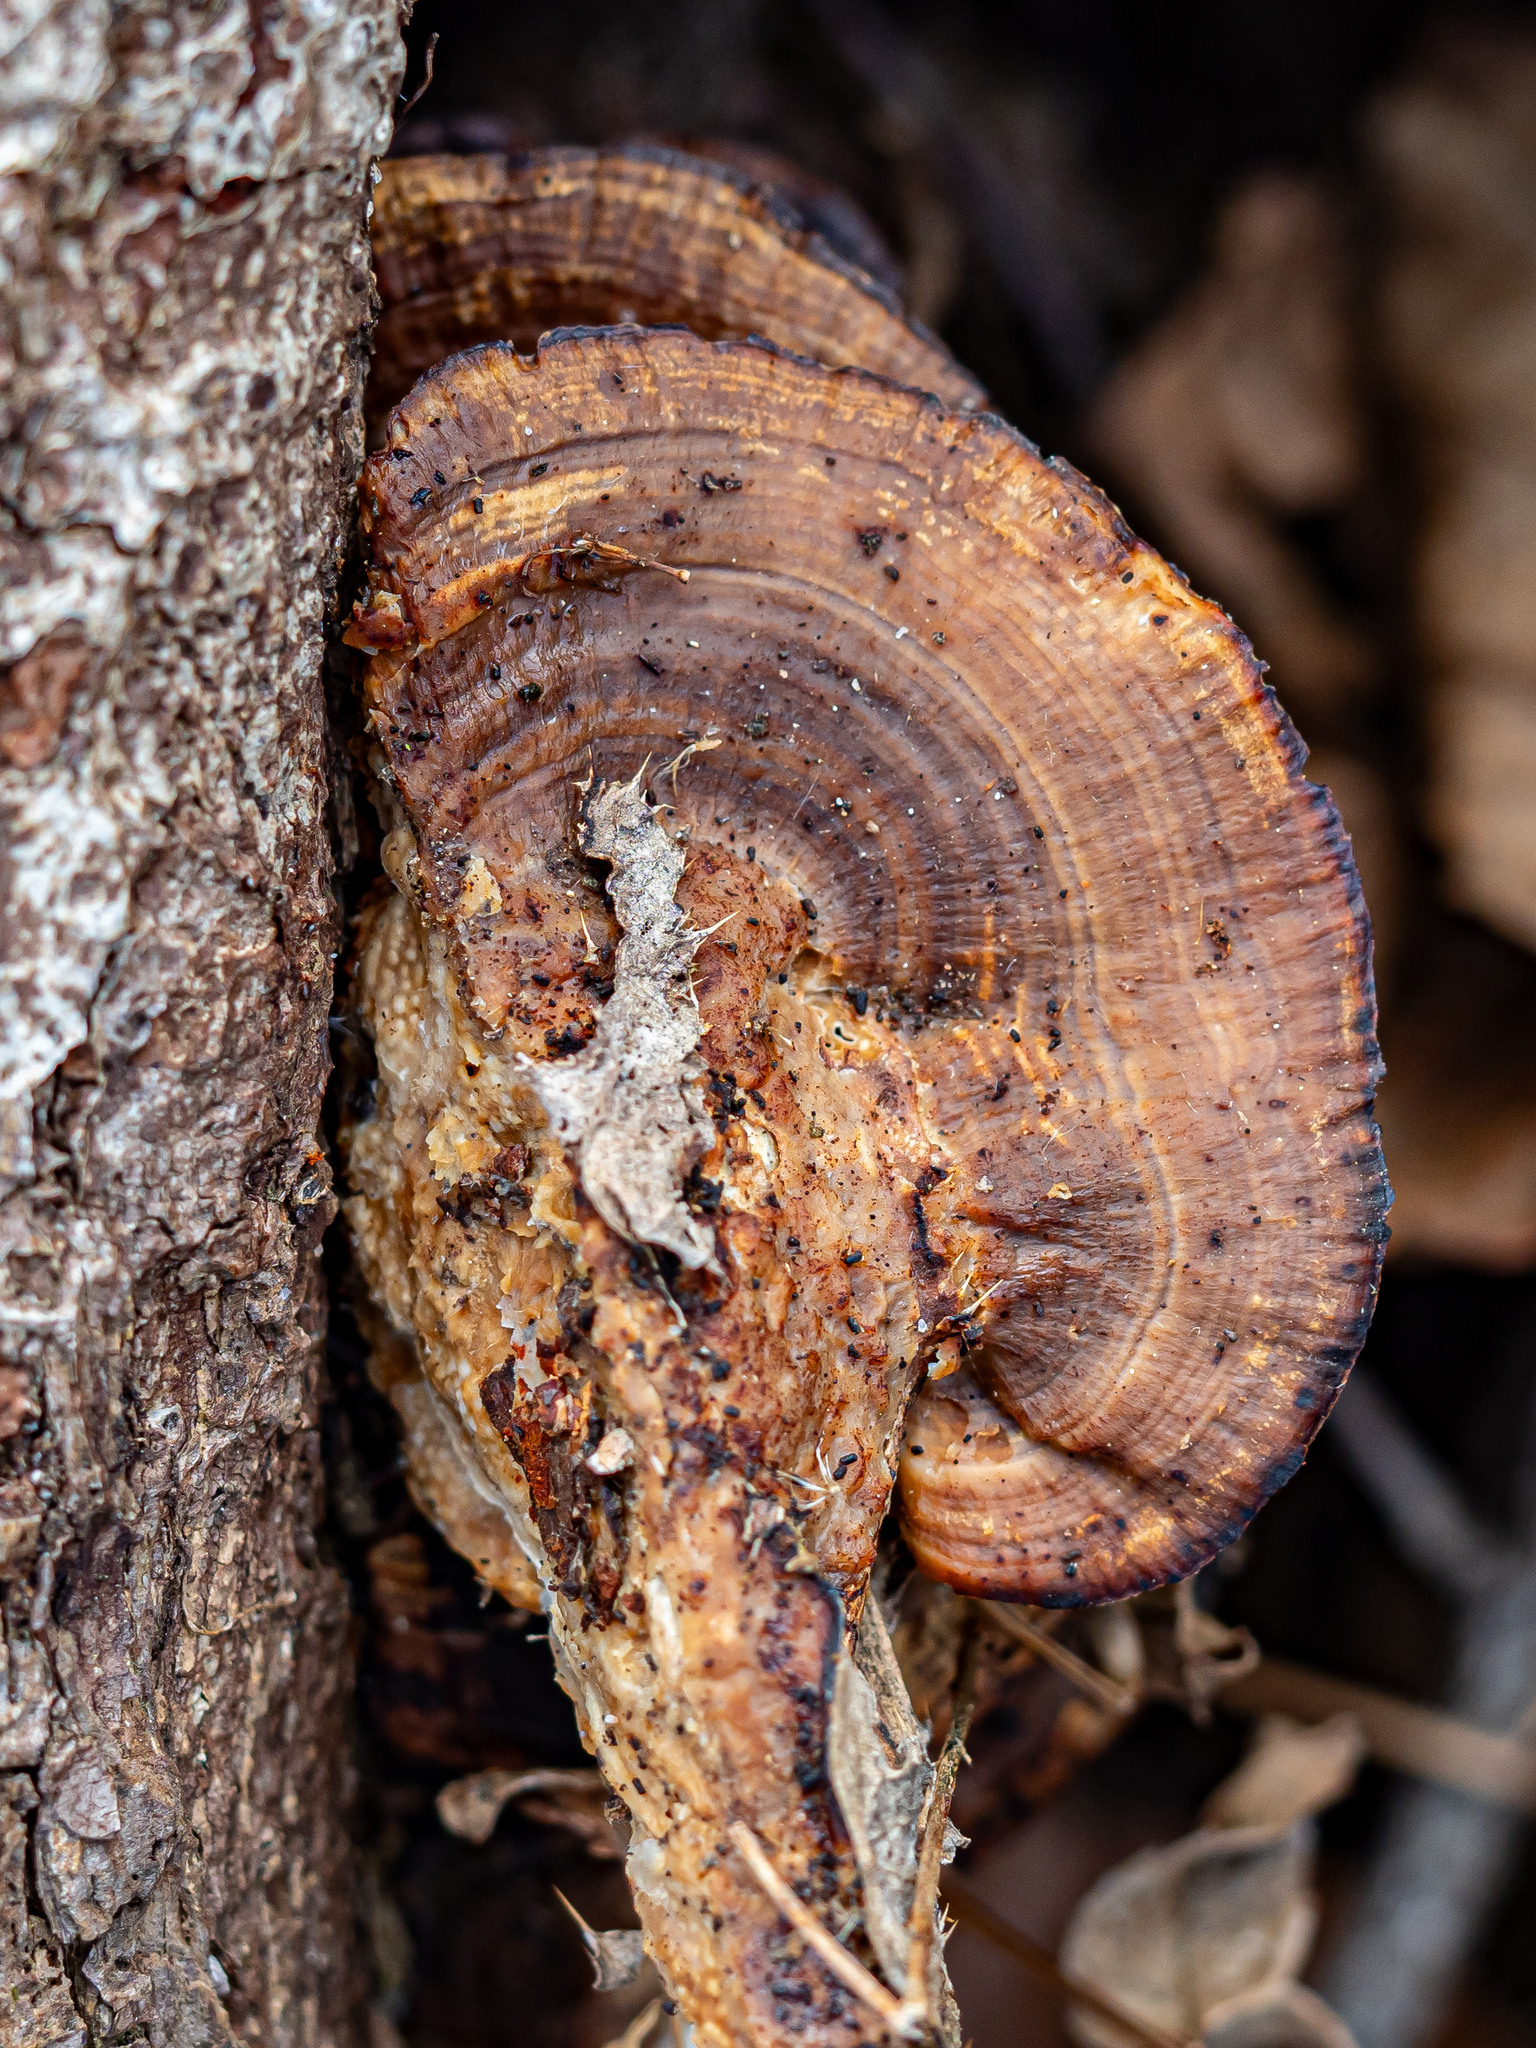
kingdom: Fungi
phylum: Basidiomycota
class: Agaricomycetes
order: Polyporales
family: Polyporaceae
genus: Daedaleopsis
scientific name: Daedaleopsis confragosa
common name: Blushing bracket
